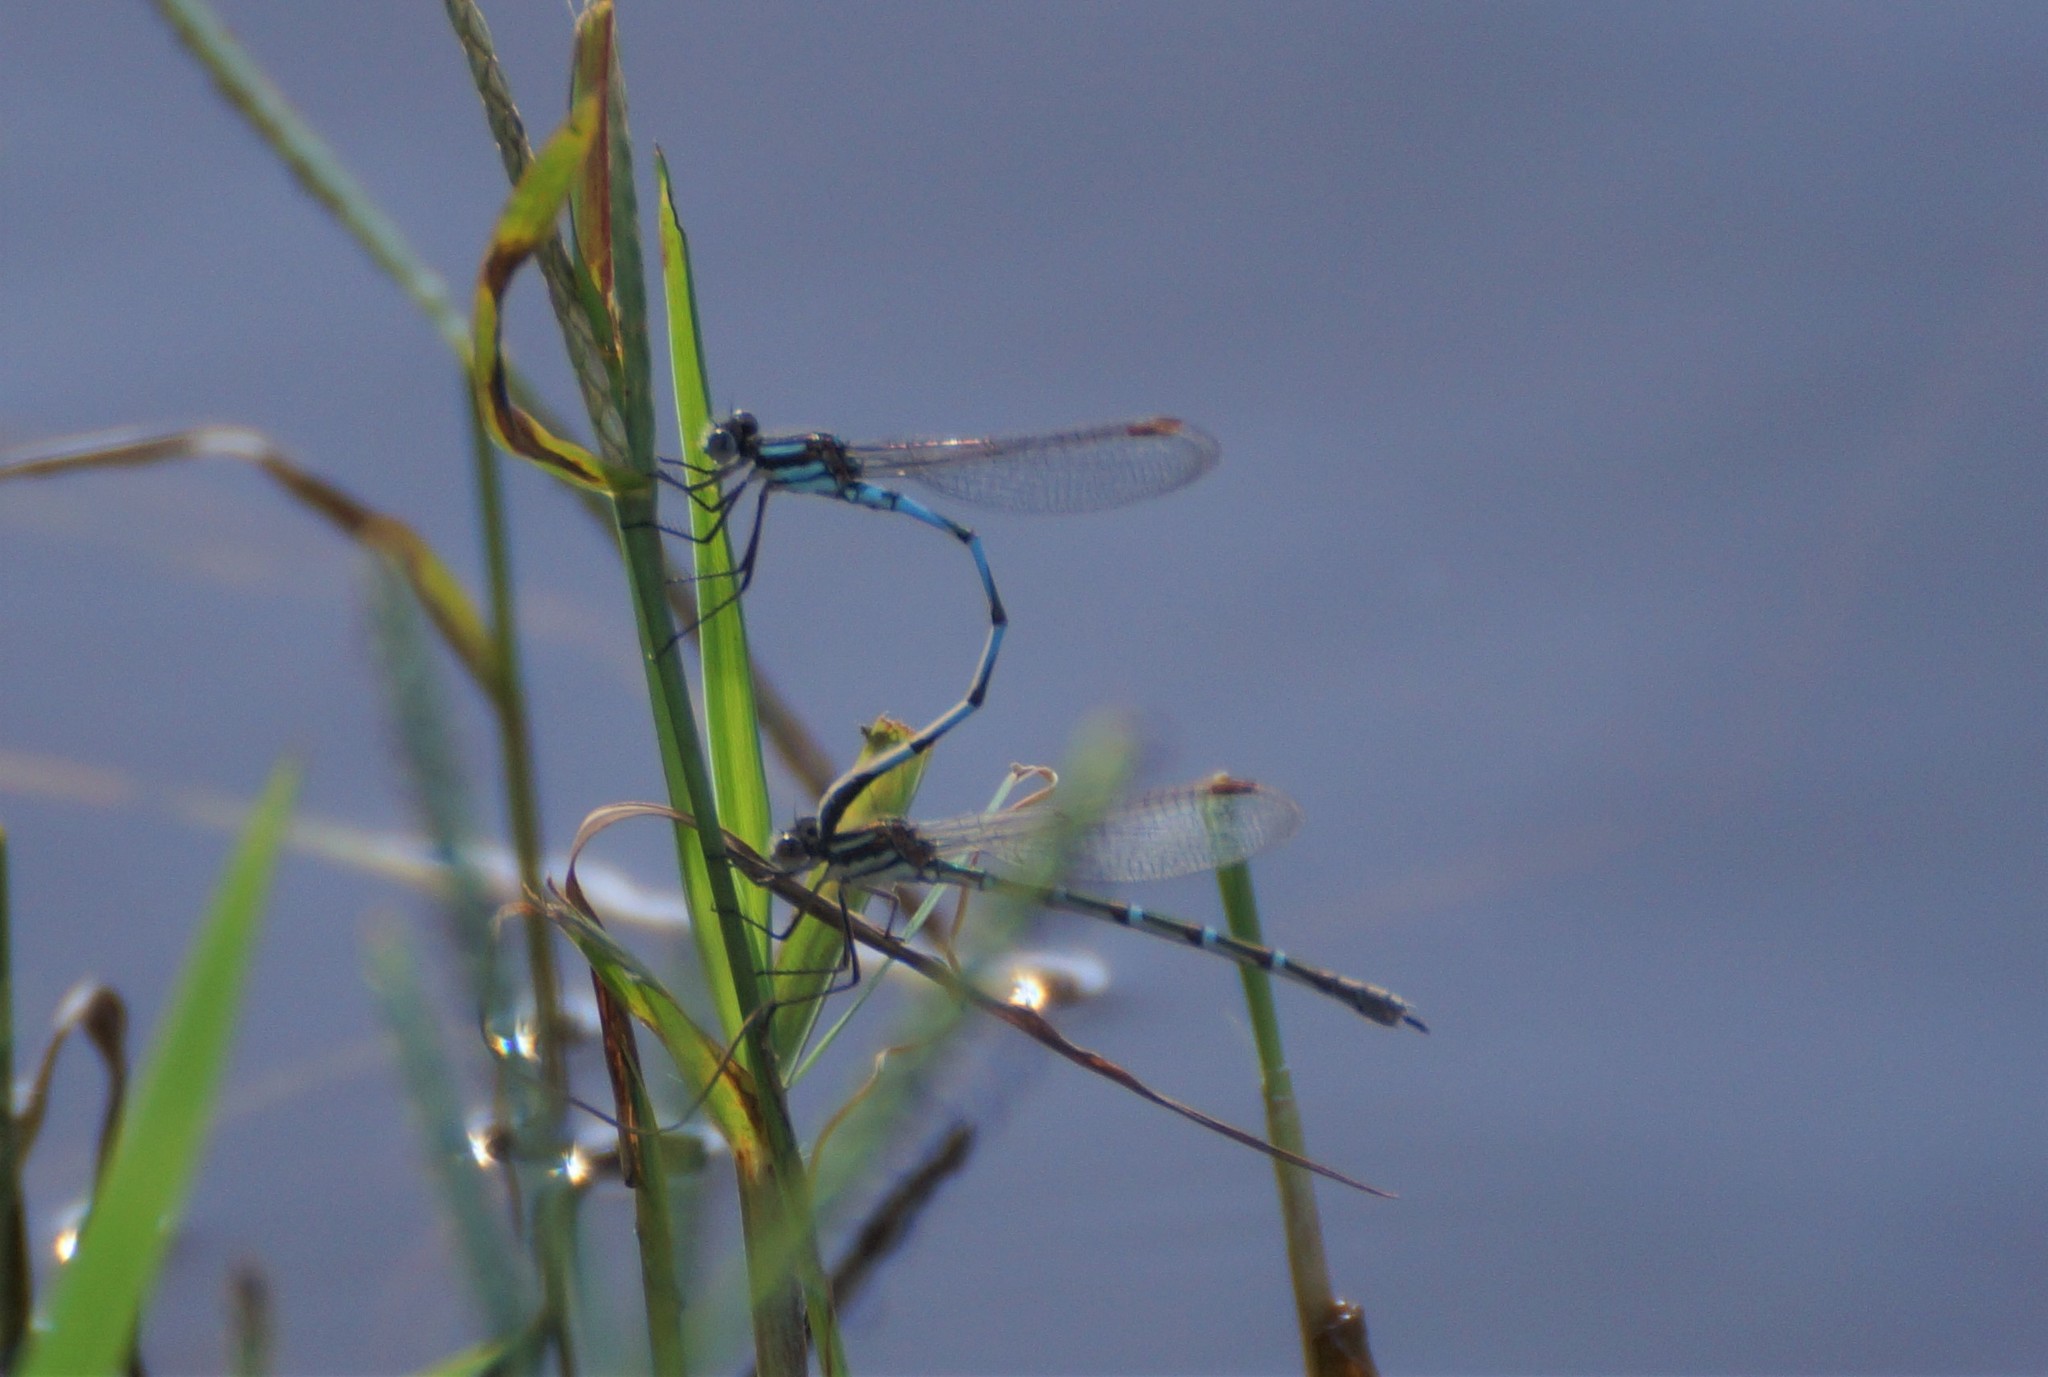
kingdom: Animalia
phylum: Arthropoda
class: Insecta
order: Odonata
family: Lestidae
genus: Austrolestes
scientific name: Austrolestes annulosus
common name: Blue ringtail
